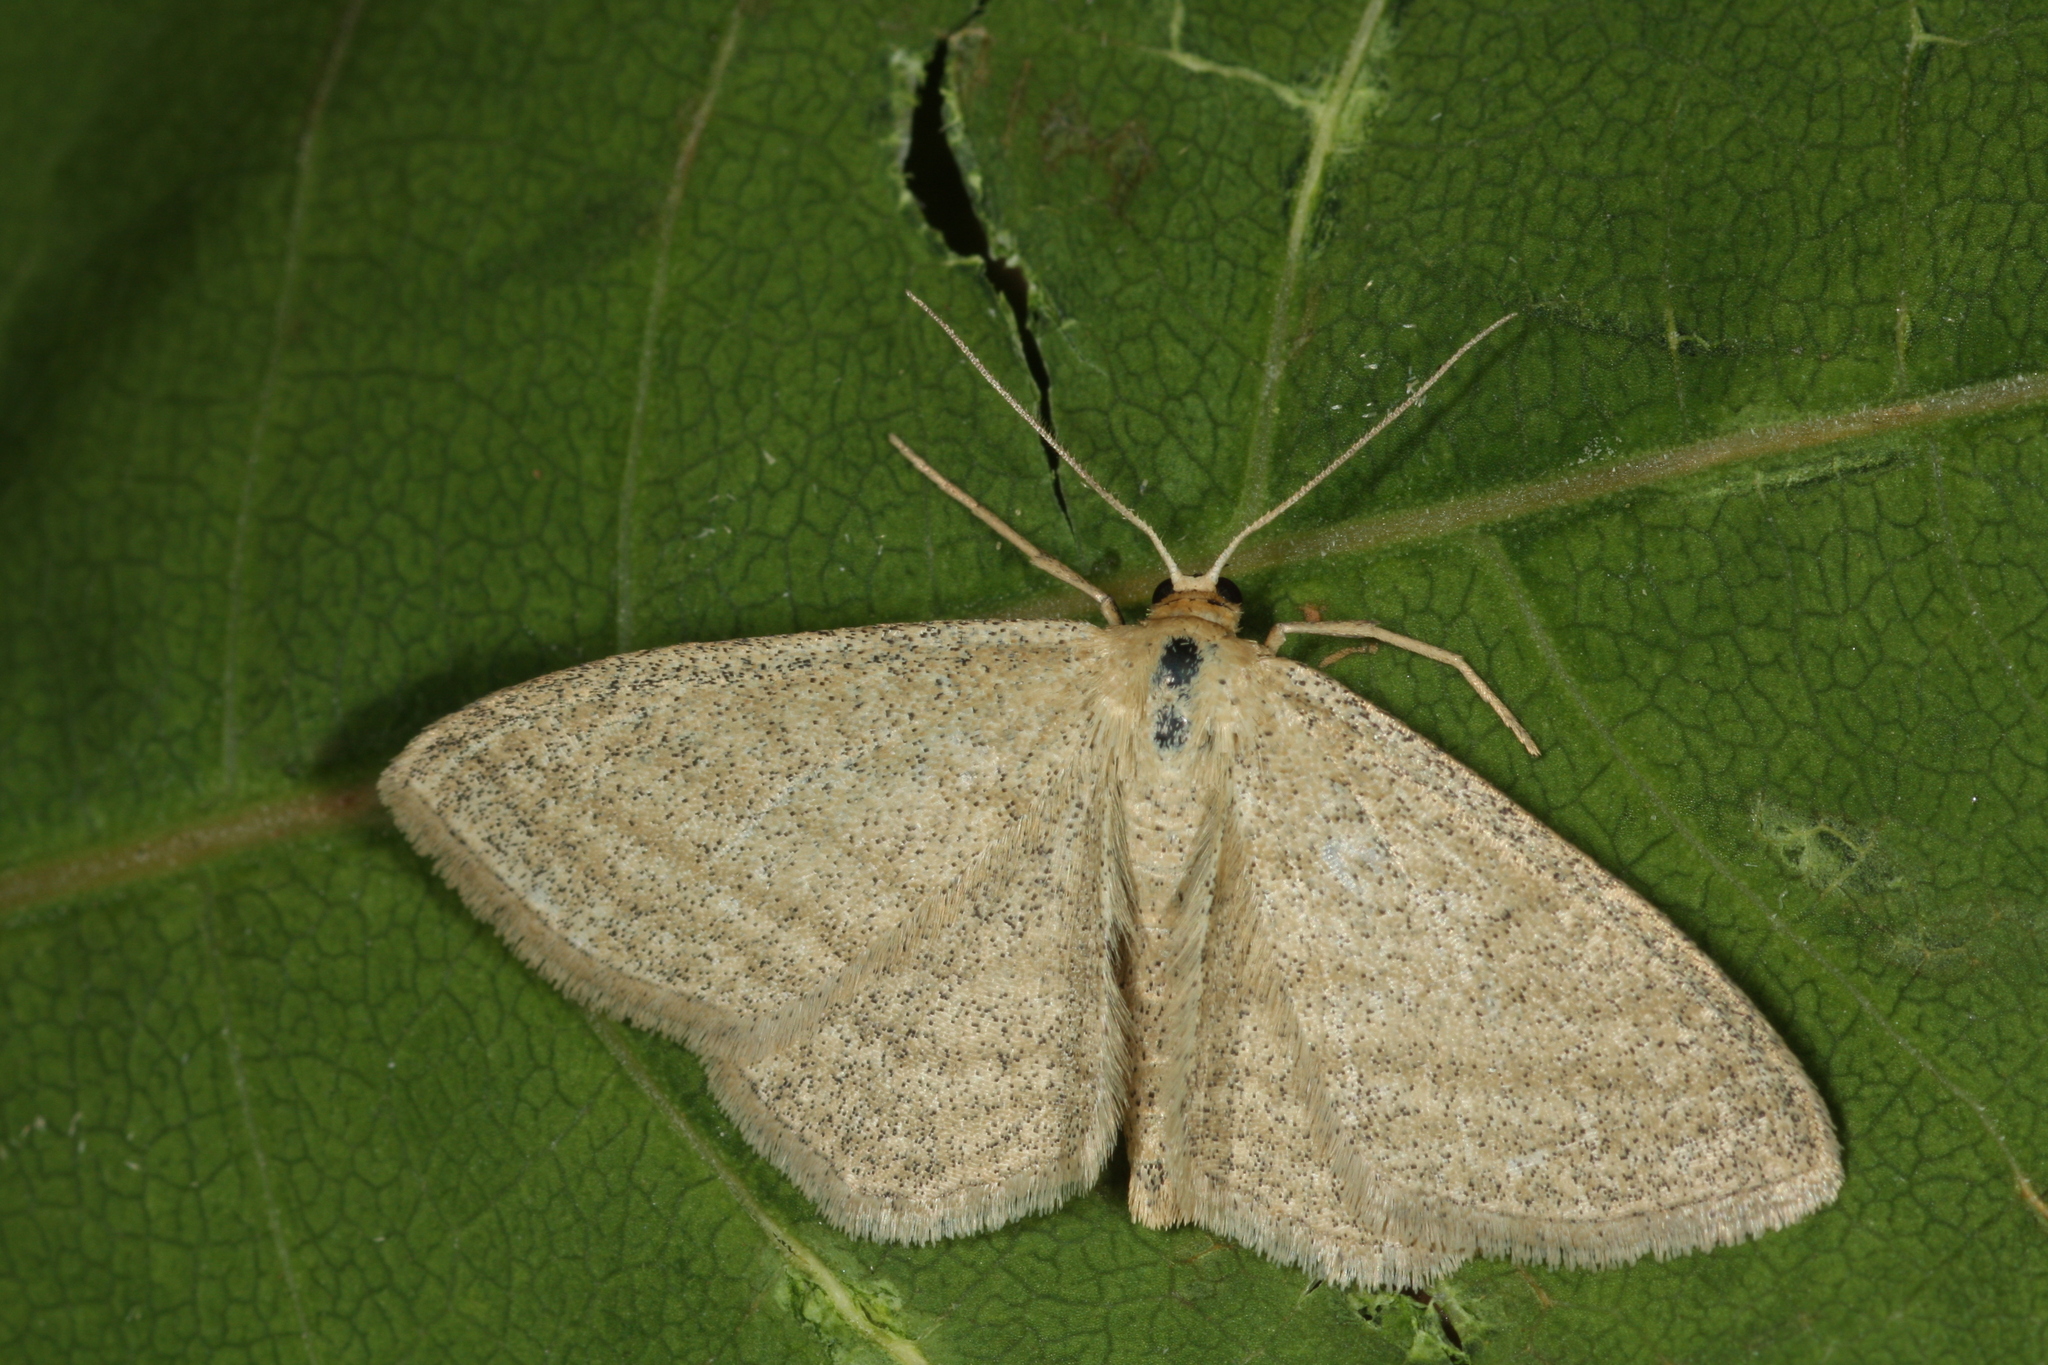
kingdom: Animalia
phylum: Arthropoda
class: Insecta
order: Lepidoptera
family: Geometridae
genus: Scopula
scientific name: Scopula virgulata
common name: Streaked wave
